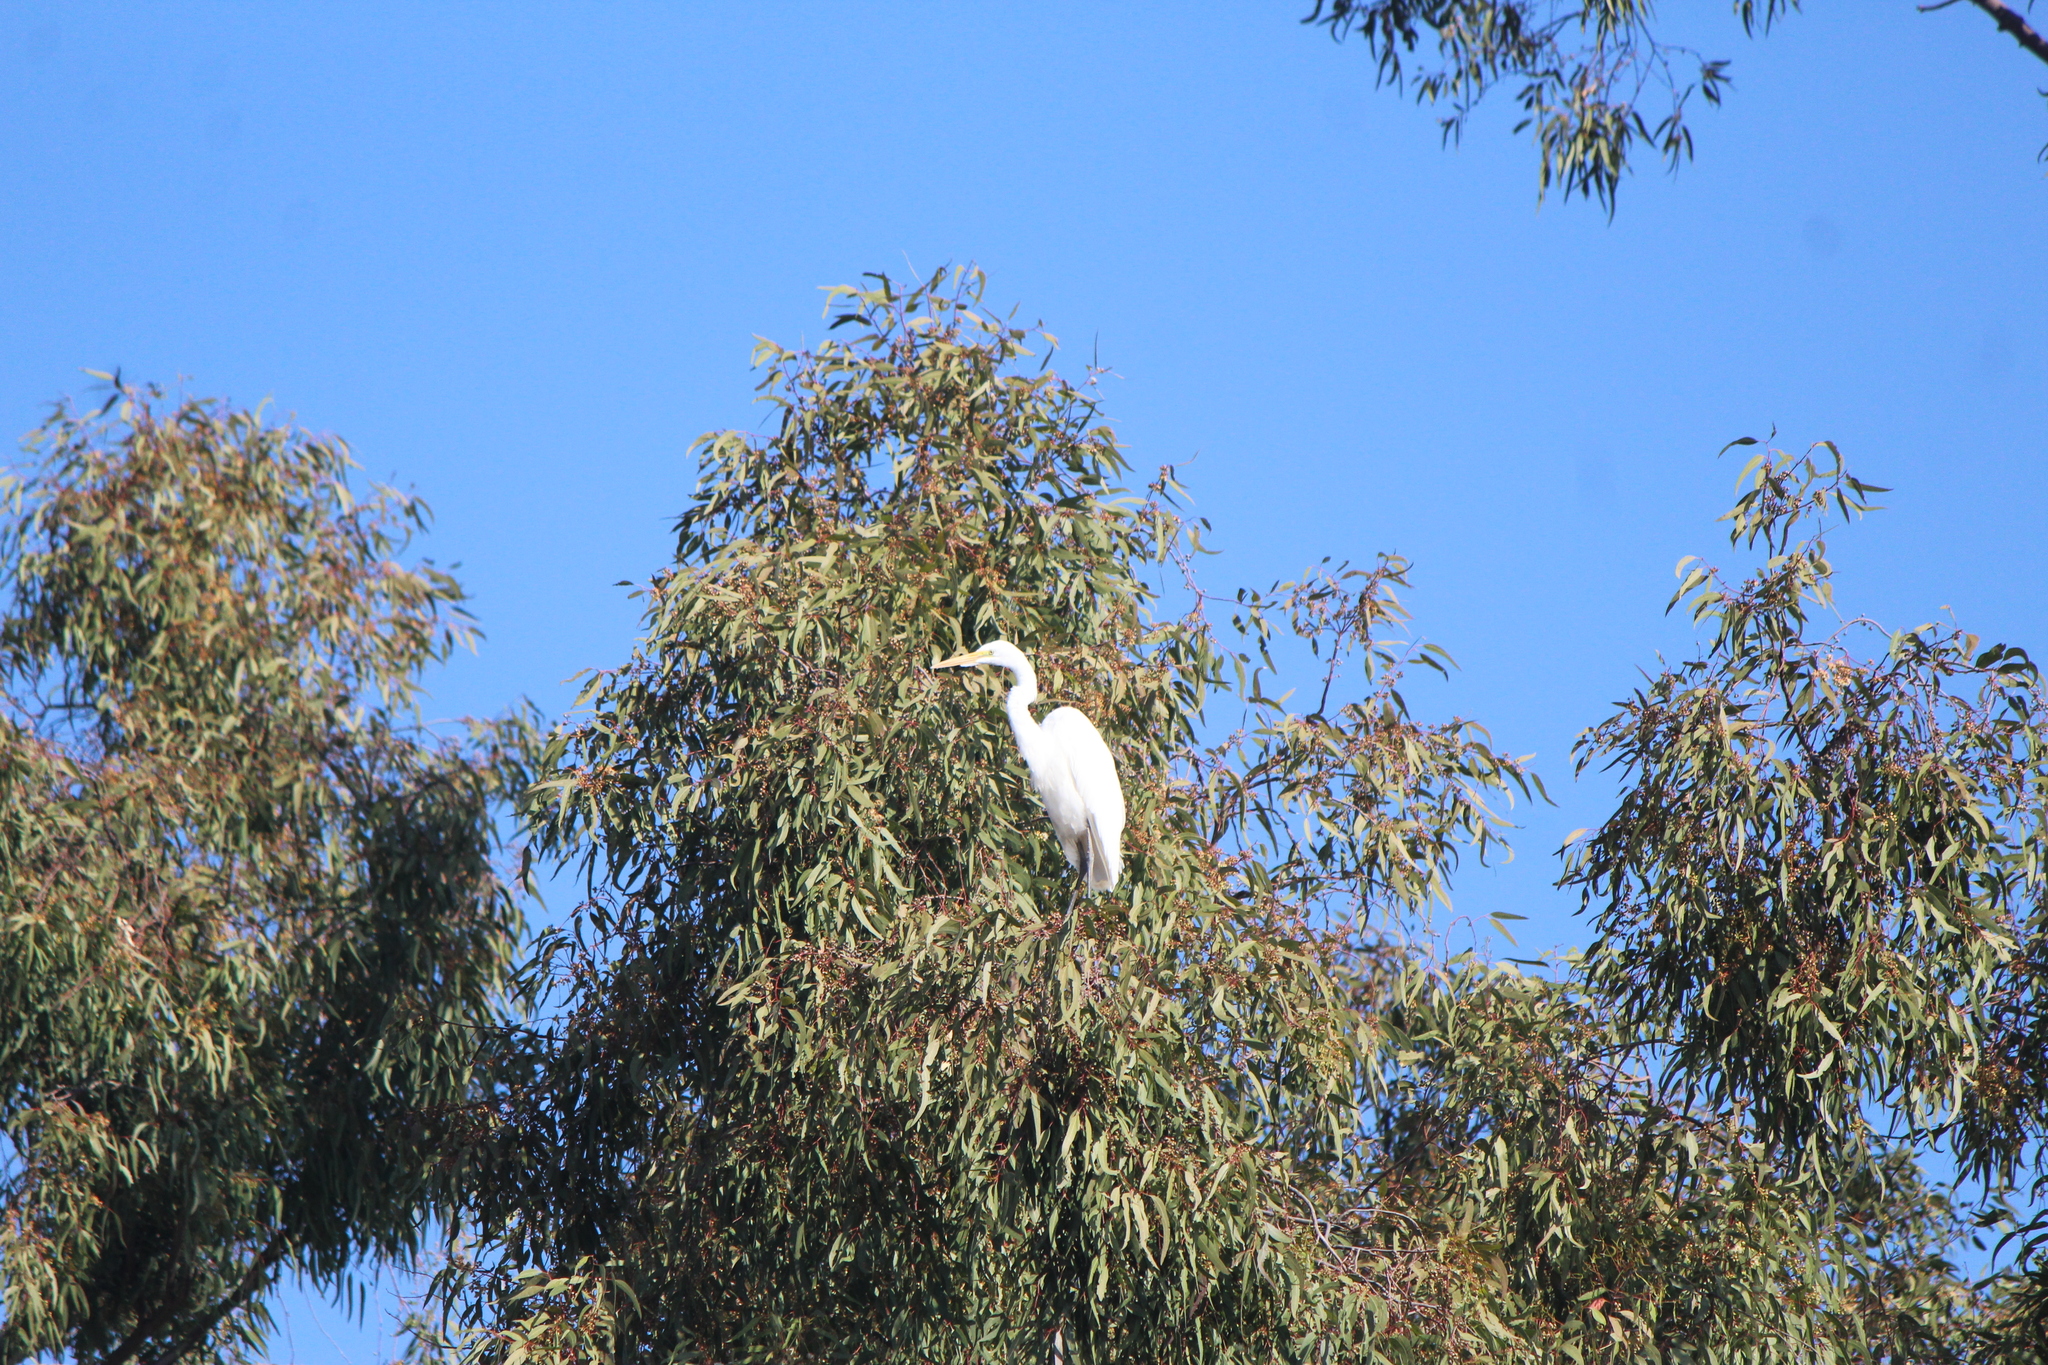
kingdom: Animalia
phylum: Chordata
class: Aves
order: Pelecaniformes
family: Ardeidae
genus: Ardea
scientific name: Ardea alba
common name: Great egret
